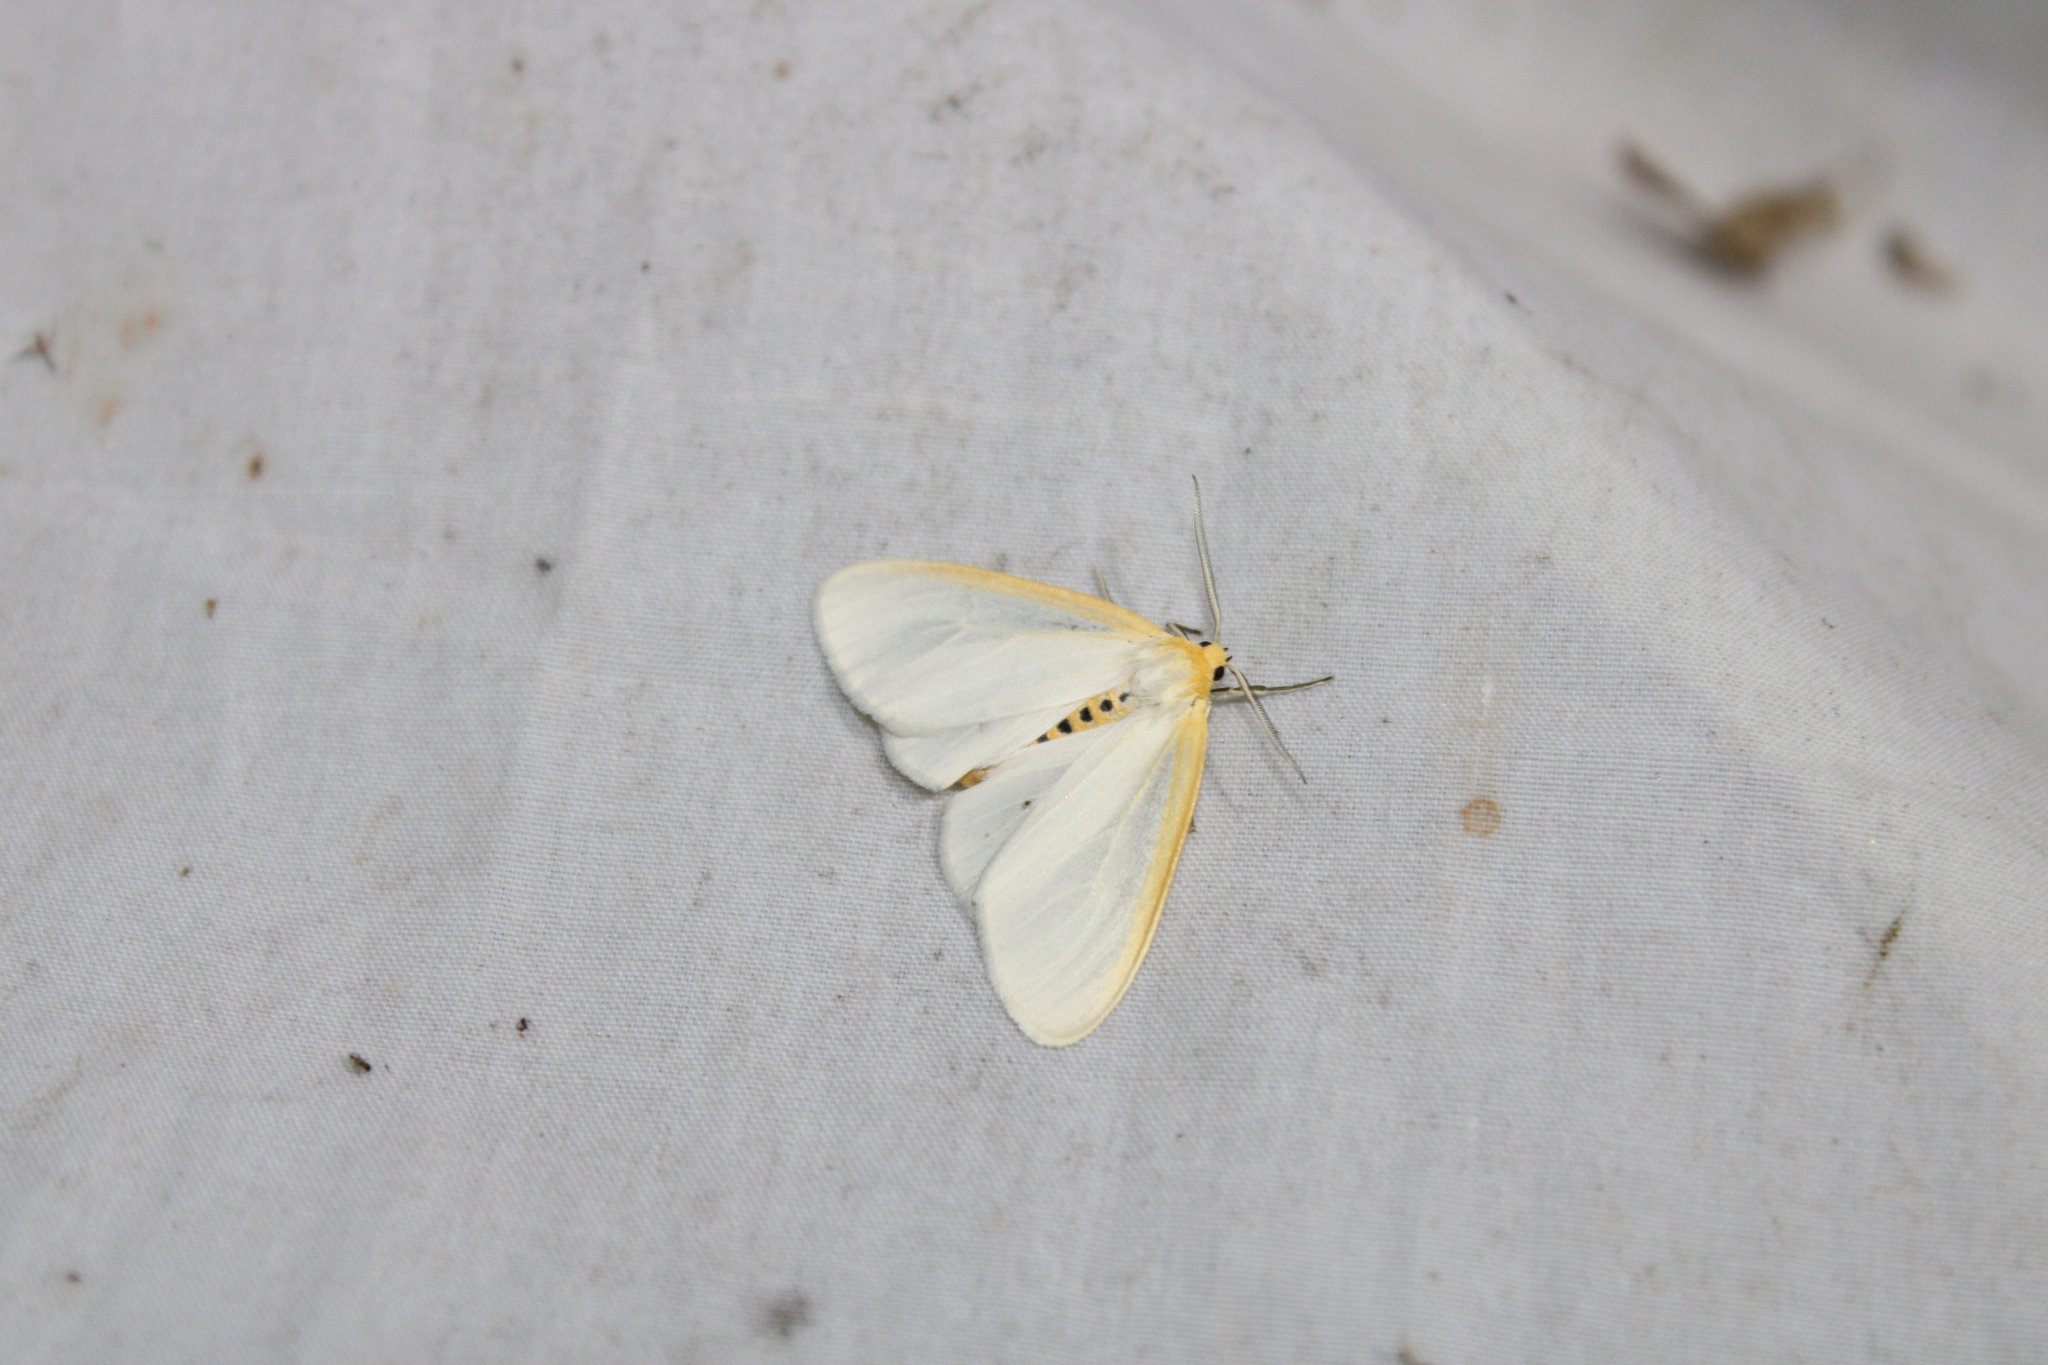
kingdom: Animalia
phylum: Arthropoda
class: Insecta
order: Lepidoptera
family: Erebidae
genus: Cycnia
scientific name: Cycnia tenera
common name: Delicate cycnia moth
